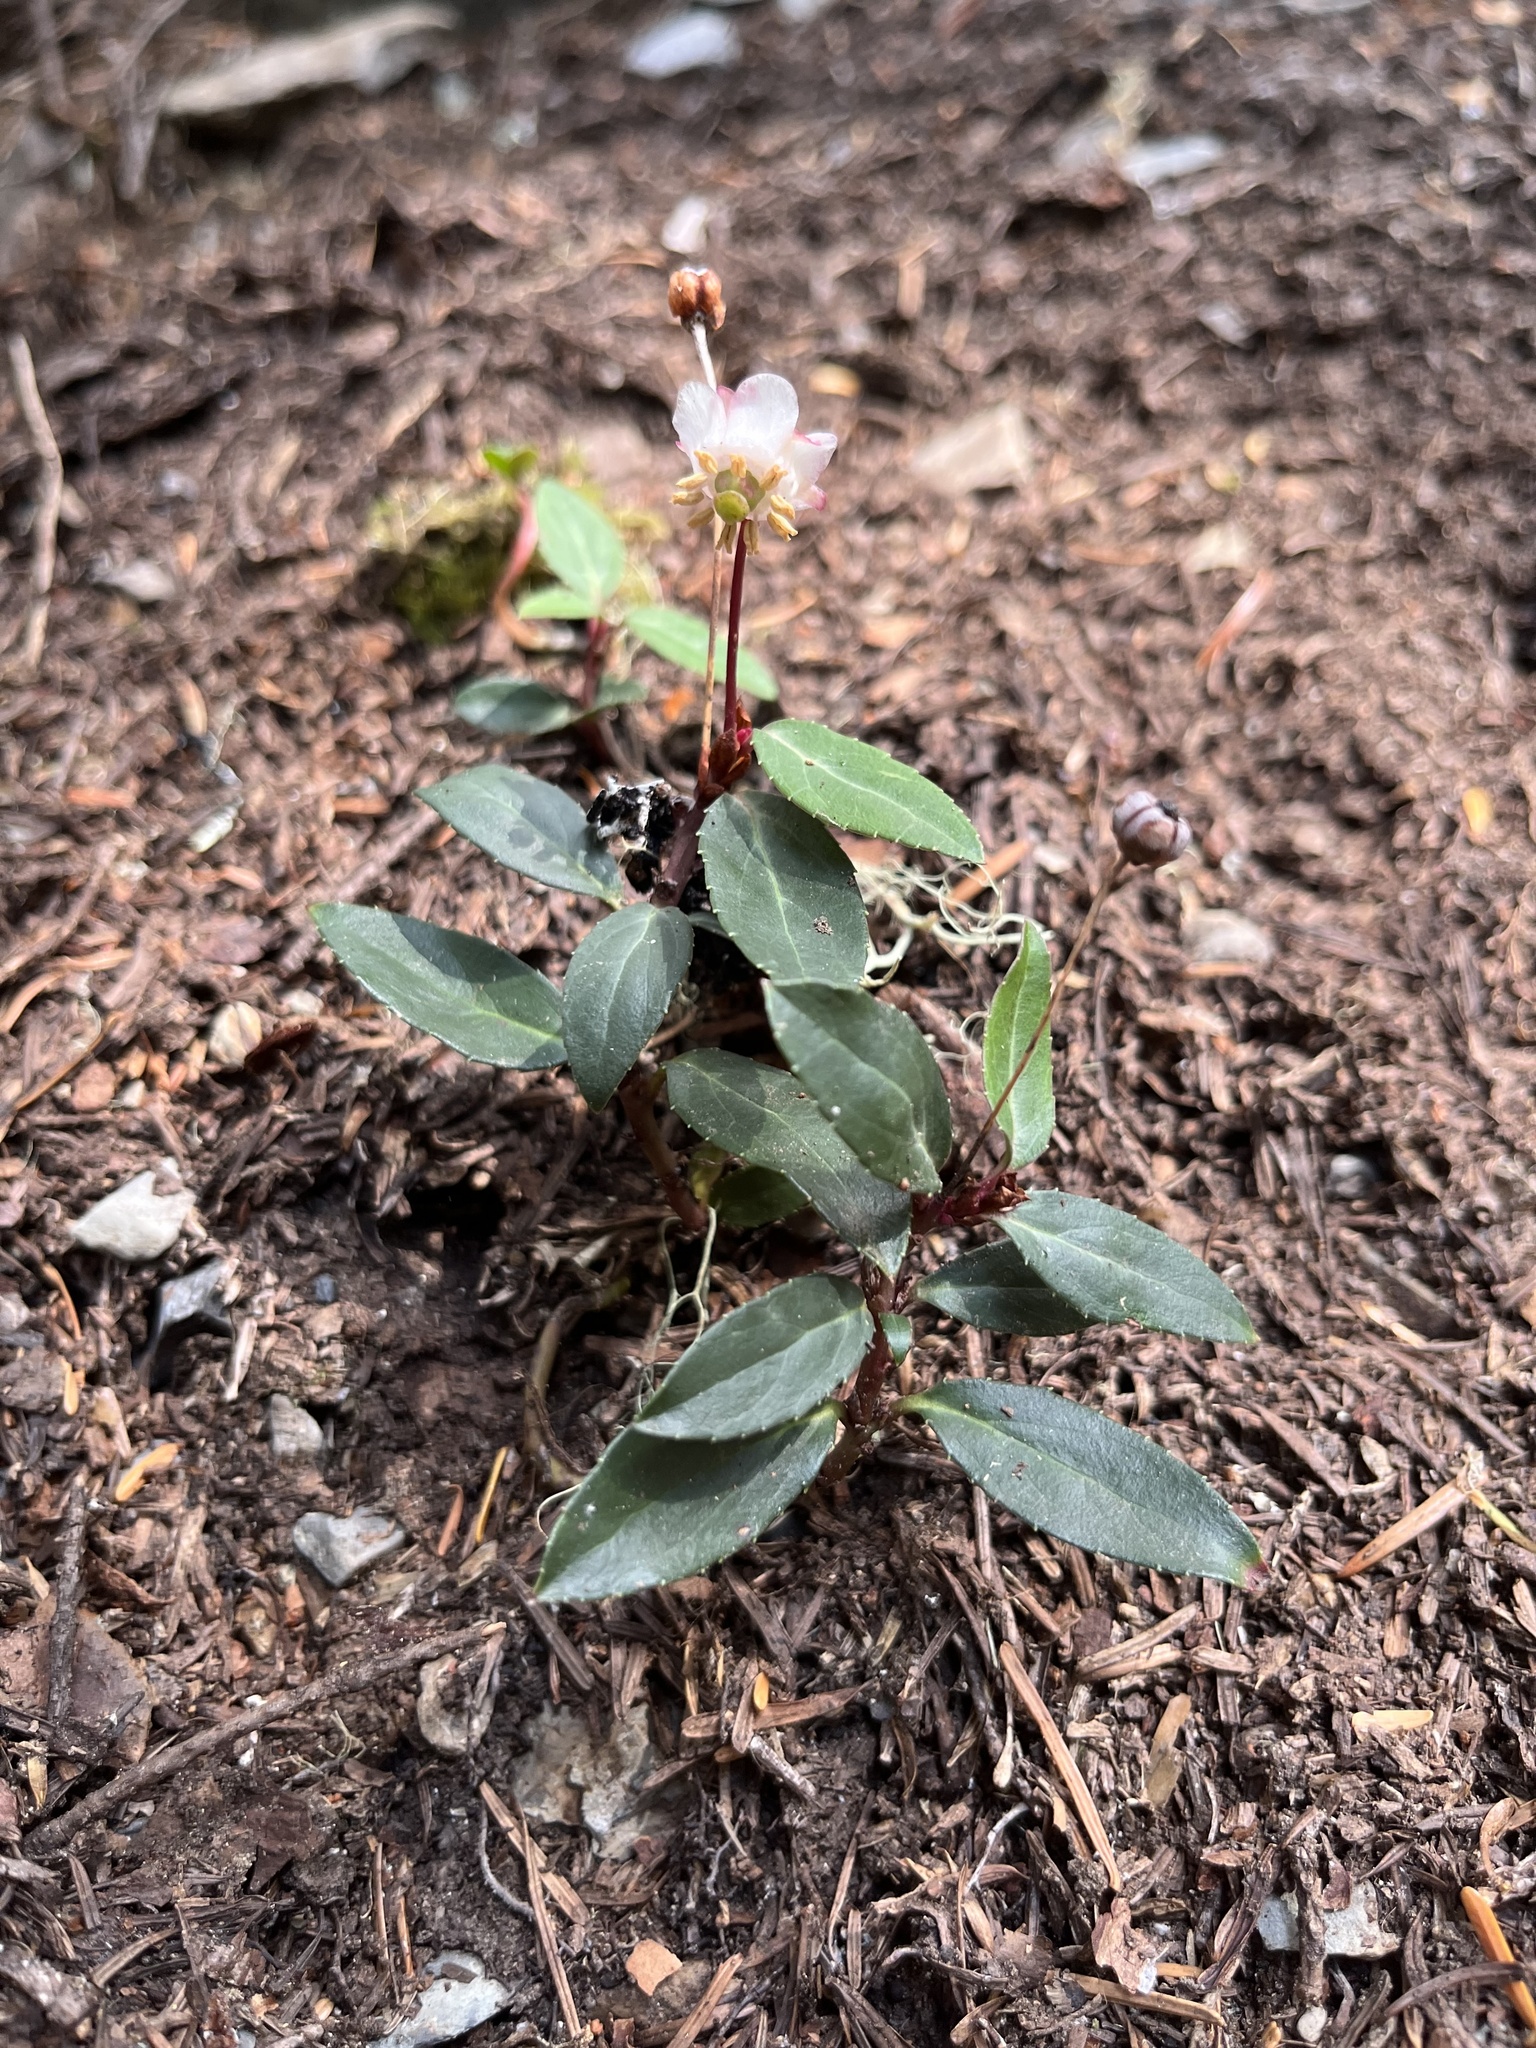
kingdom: Plantae
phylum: Tracheophyta
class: Magnoliopsida
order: Ericales
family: Ericaceae
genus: Chimaphila
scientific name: Chimaphila menziesii
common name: Menzies' pipsissewa
